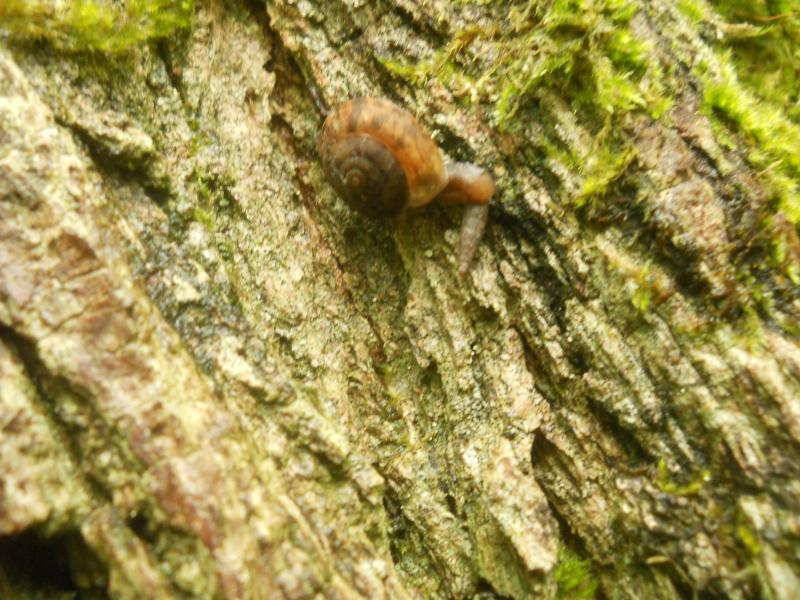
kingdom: Animalia
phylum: Mollusca
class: Gastropoda
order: Stylommatophora
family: Helicidae
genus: Helicigona
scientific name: Helicigona lapicida
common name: Lapidary snail
